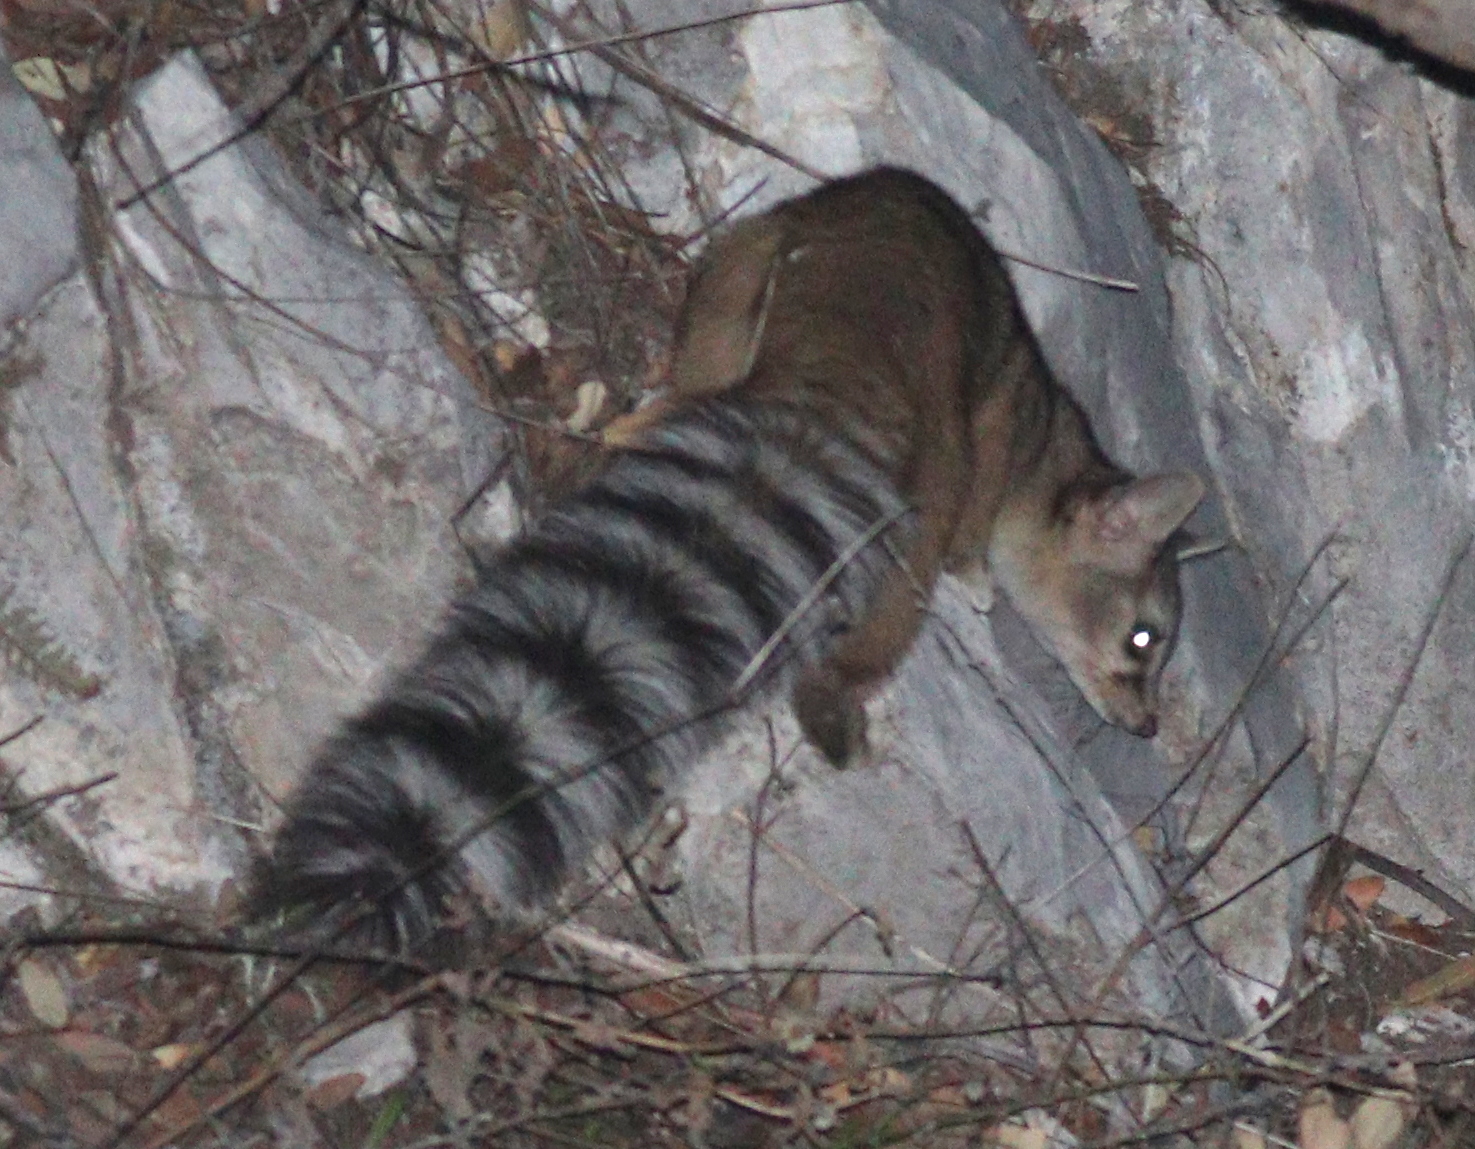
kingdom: Animalia
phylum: Chordata
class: Mammalia
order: Carnivora
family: Procyonidae
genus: Bassariscus
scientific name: Bassariscus astutus
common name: Ringtail
